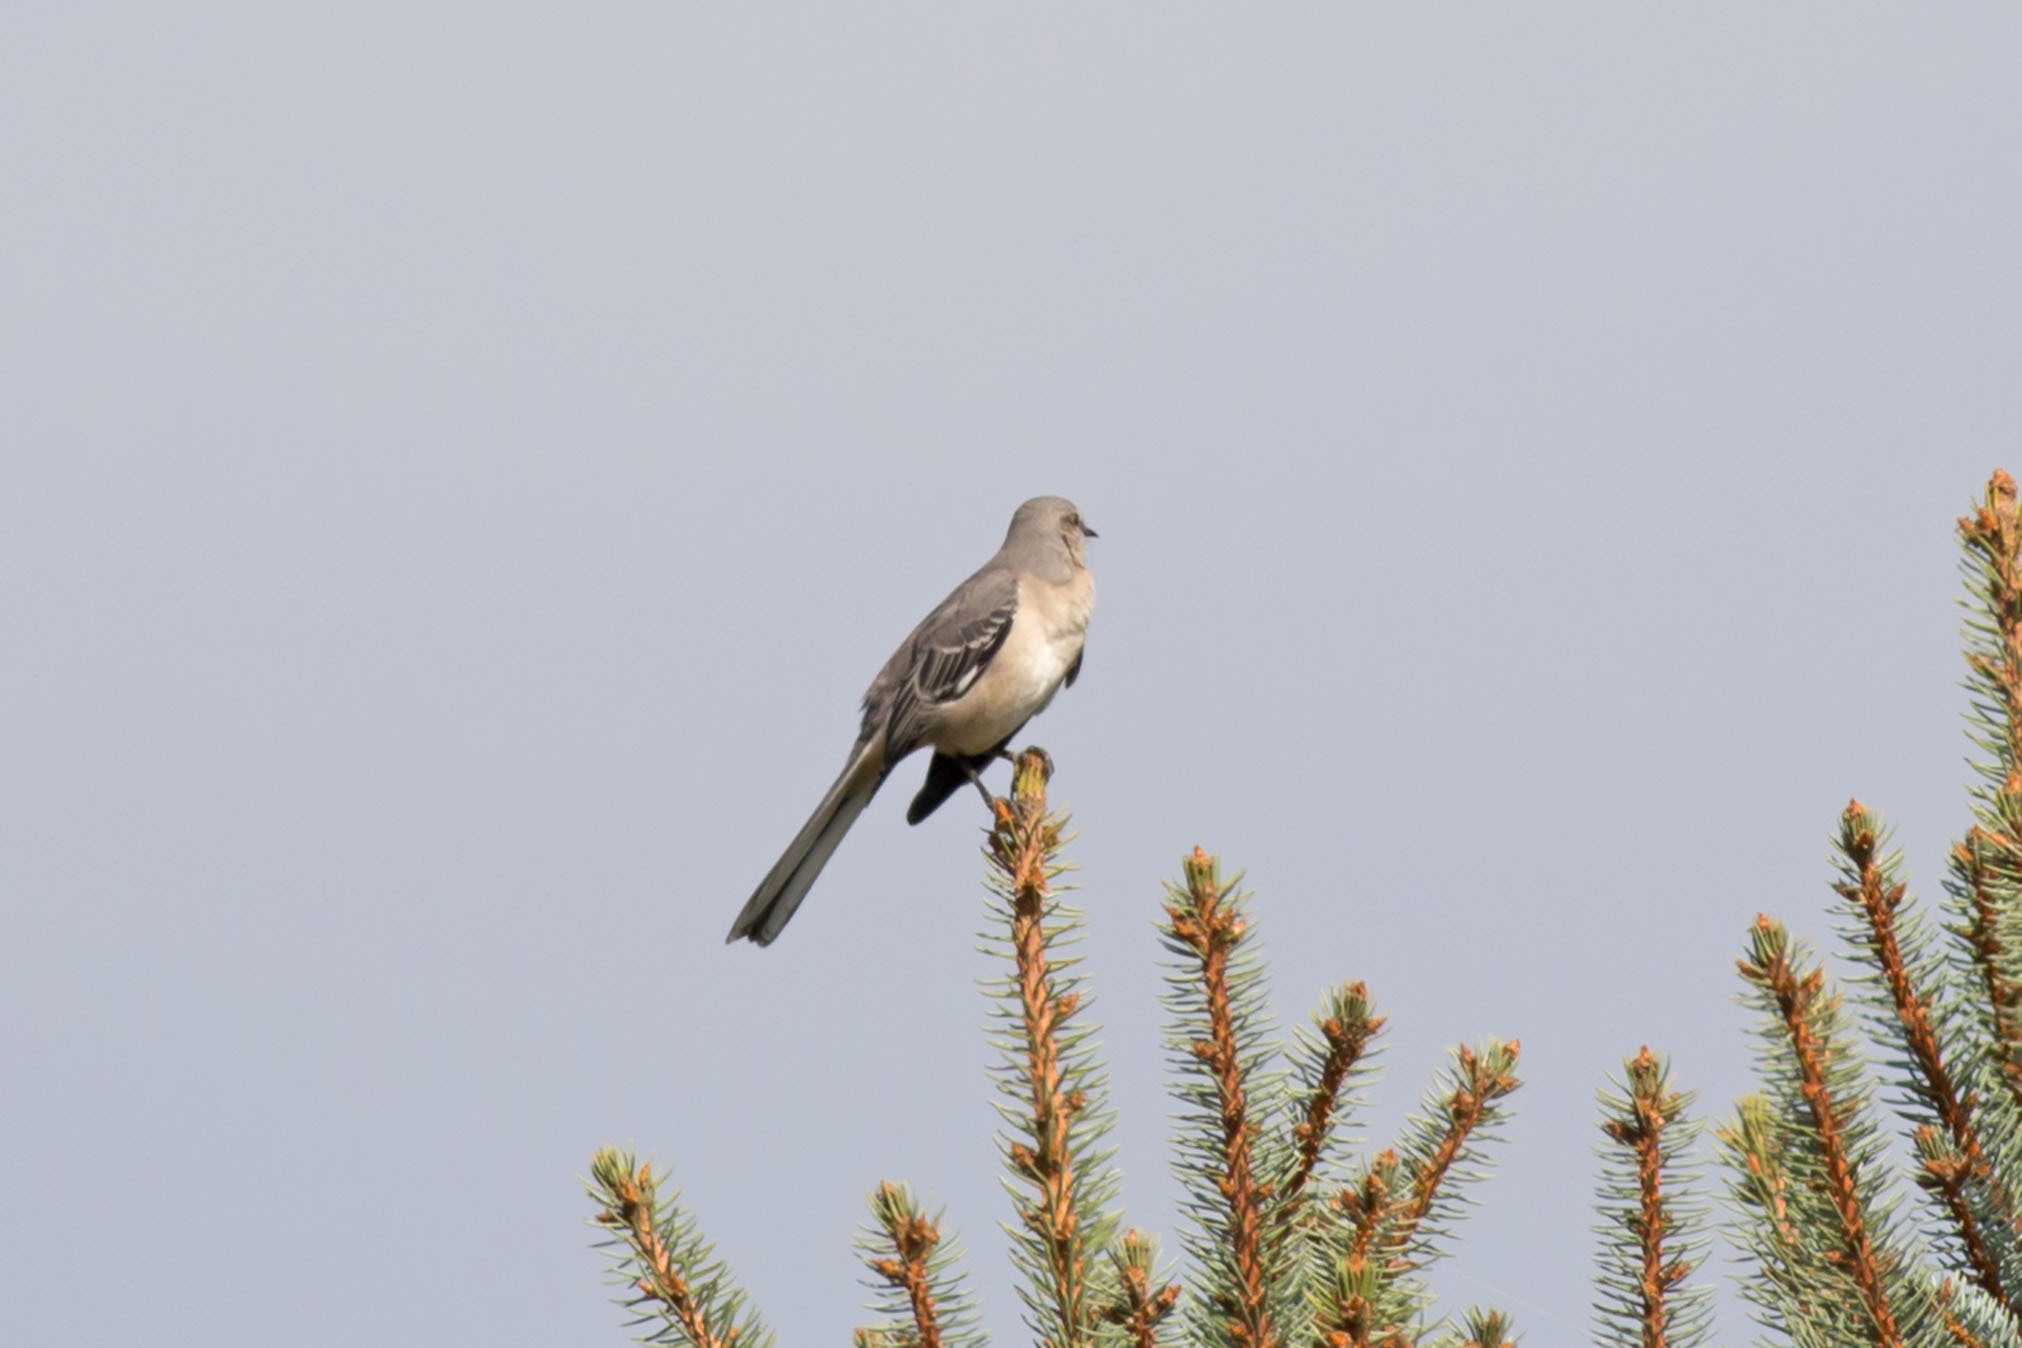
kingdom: Animalia
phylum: Chordata
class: Aves
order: Passeriformes
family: Mimidae
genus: Mimus
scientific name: Mimus polyglottos
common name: Northern mockingbird
